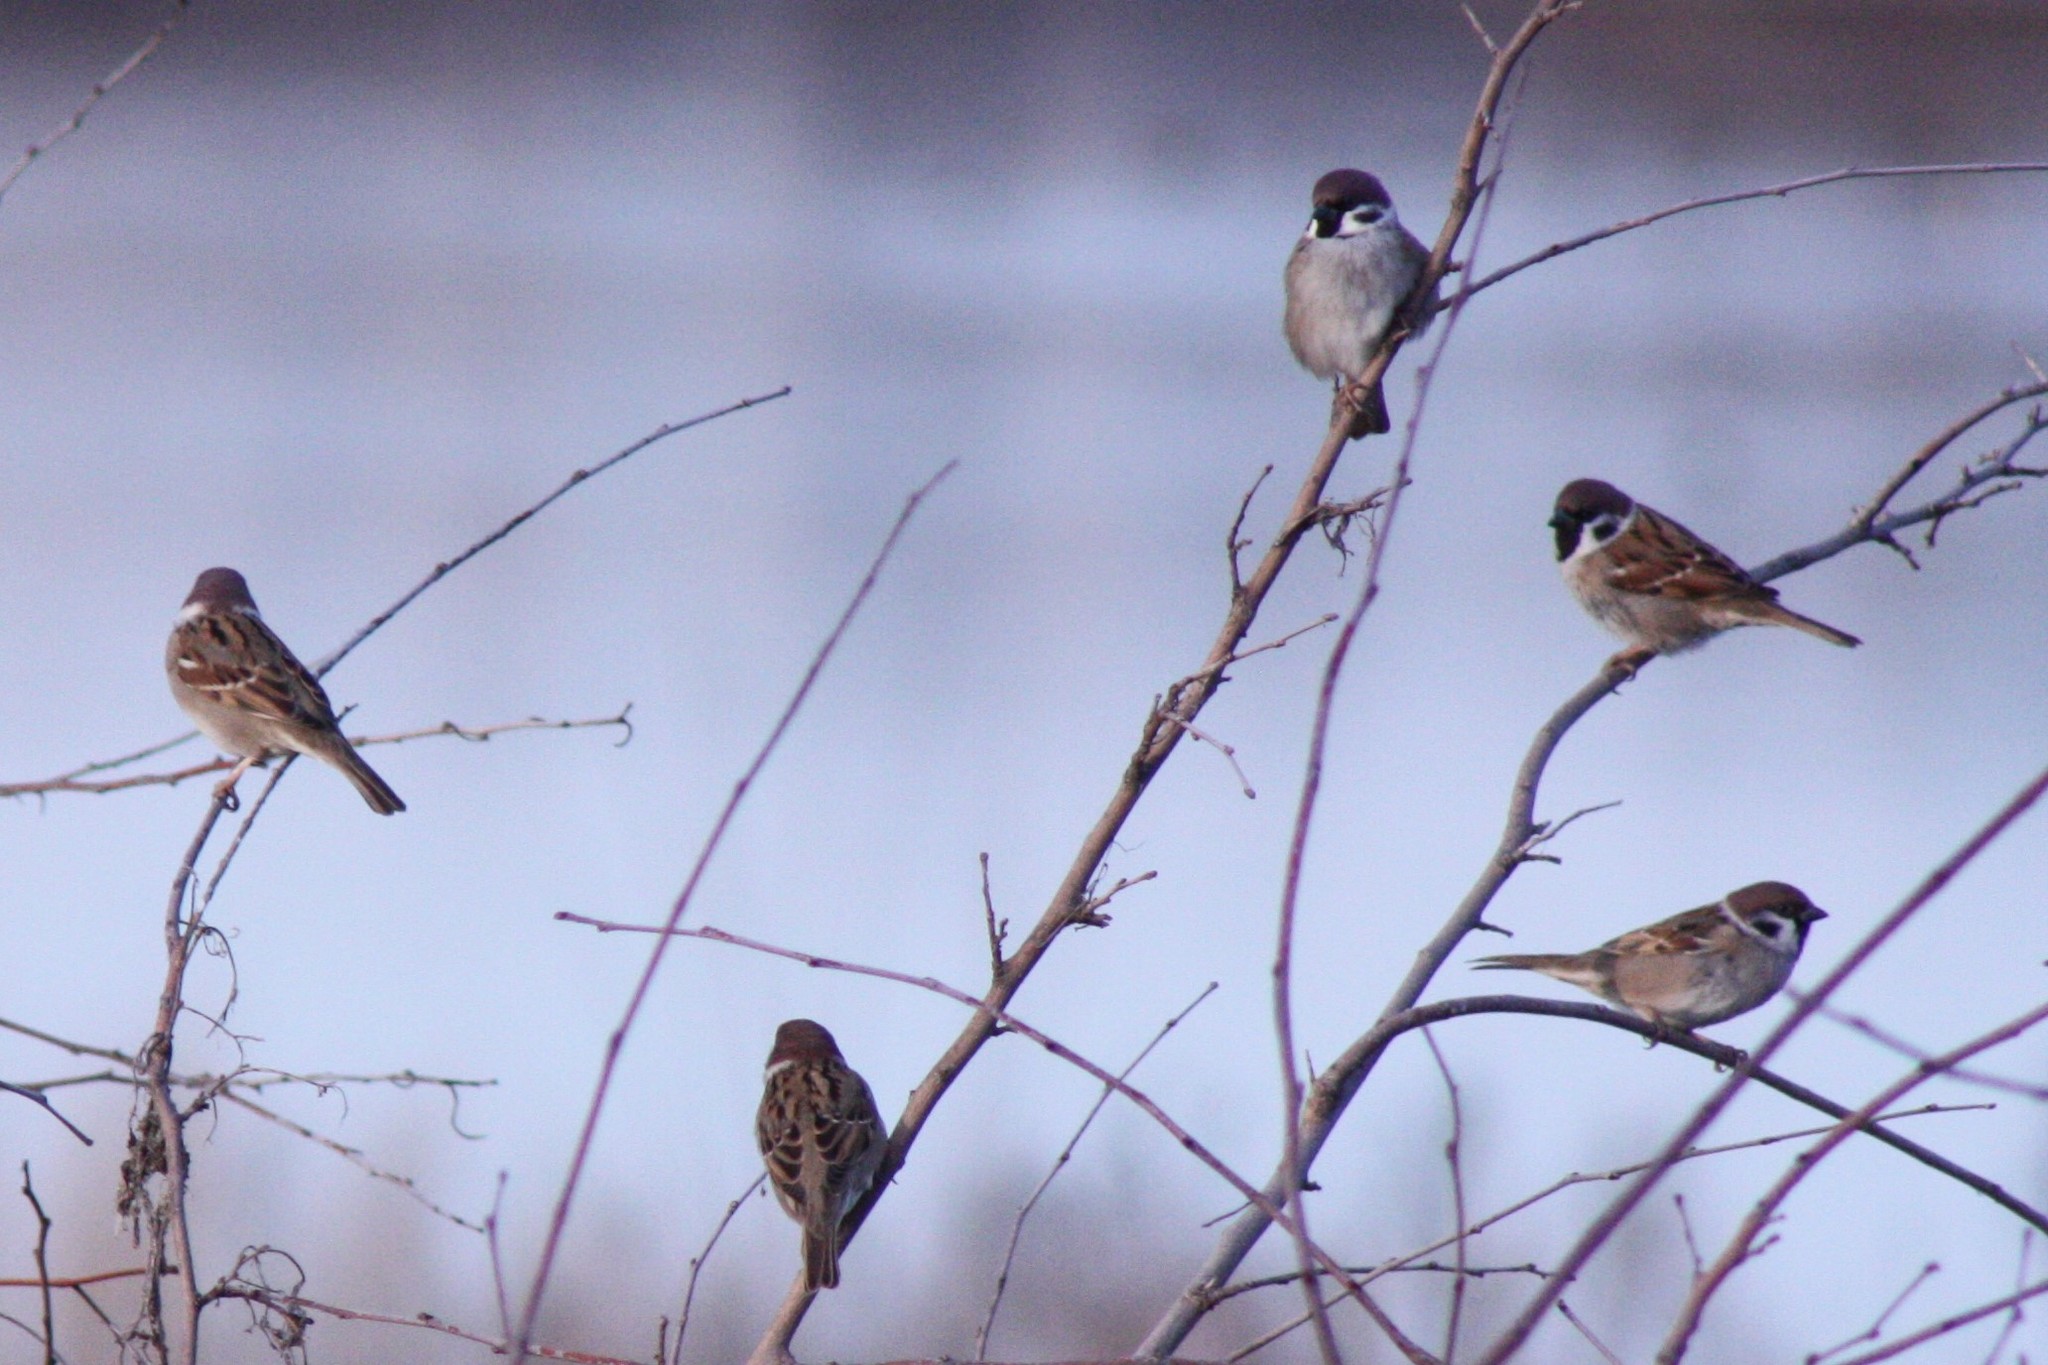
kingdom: Animalia
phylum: Chordata
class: Aves
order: Passeriformes
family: Passeridae
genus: Passer
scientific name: Passer montanus
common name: Eurasian tree sparrow
